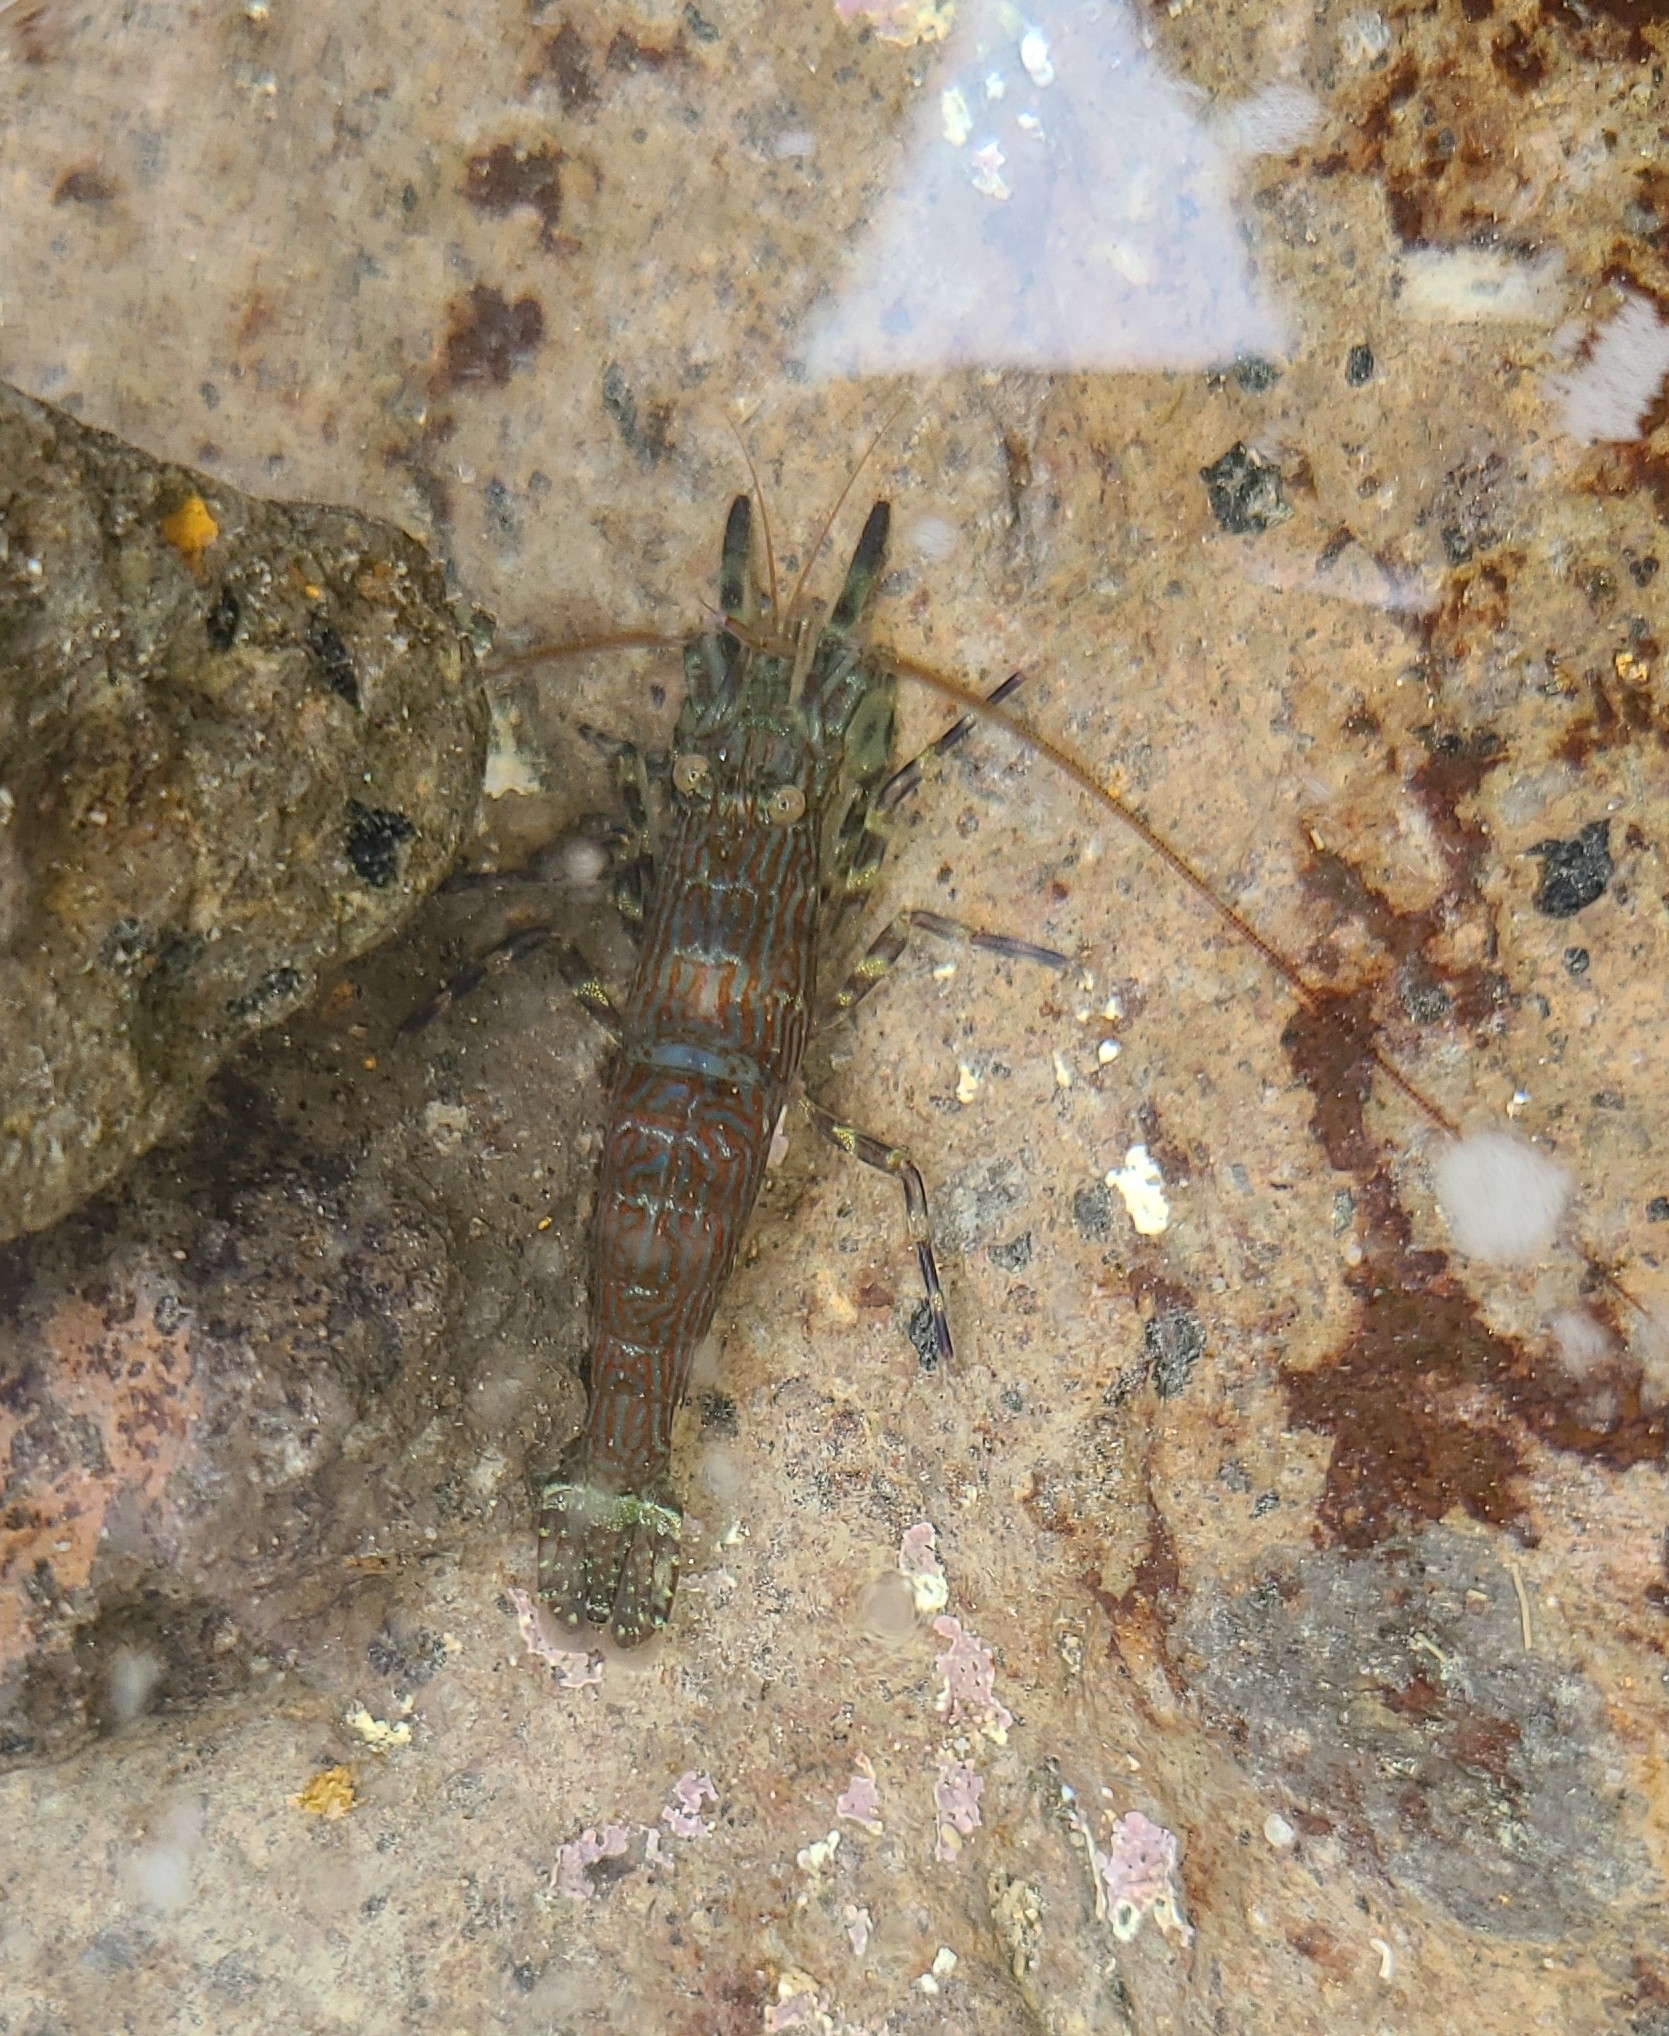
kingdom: Animalia
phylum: Arthropoda
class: Malacostraca
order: Decapoda
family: Hippolytidae
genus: Alope
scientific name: Alope spinifrons
